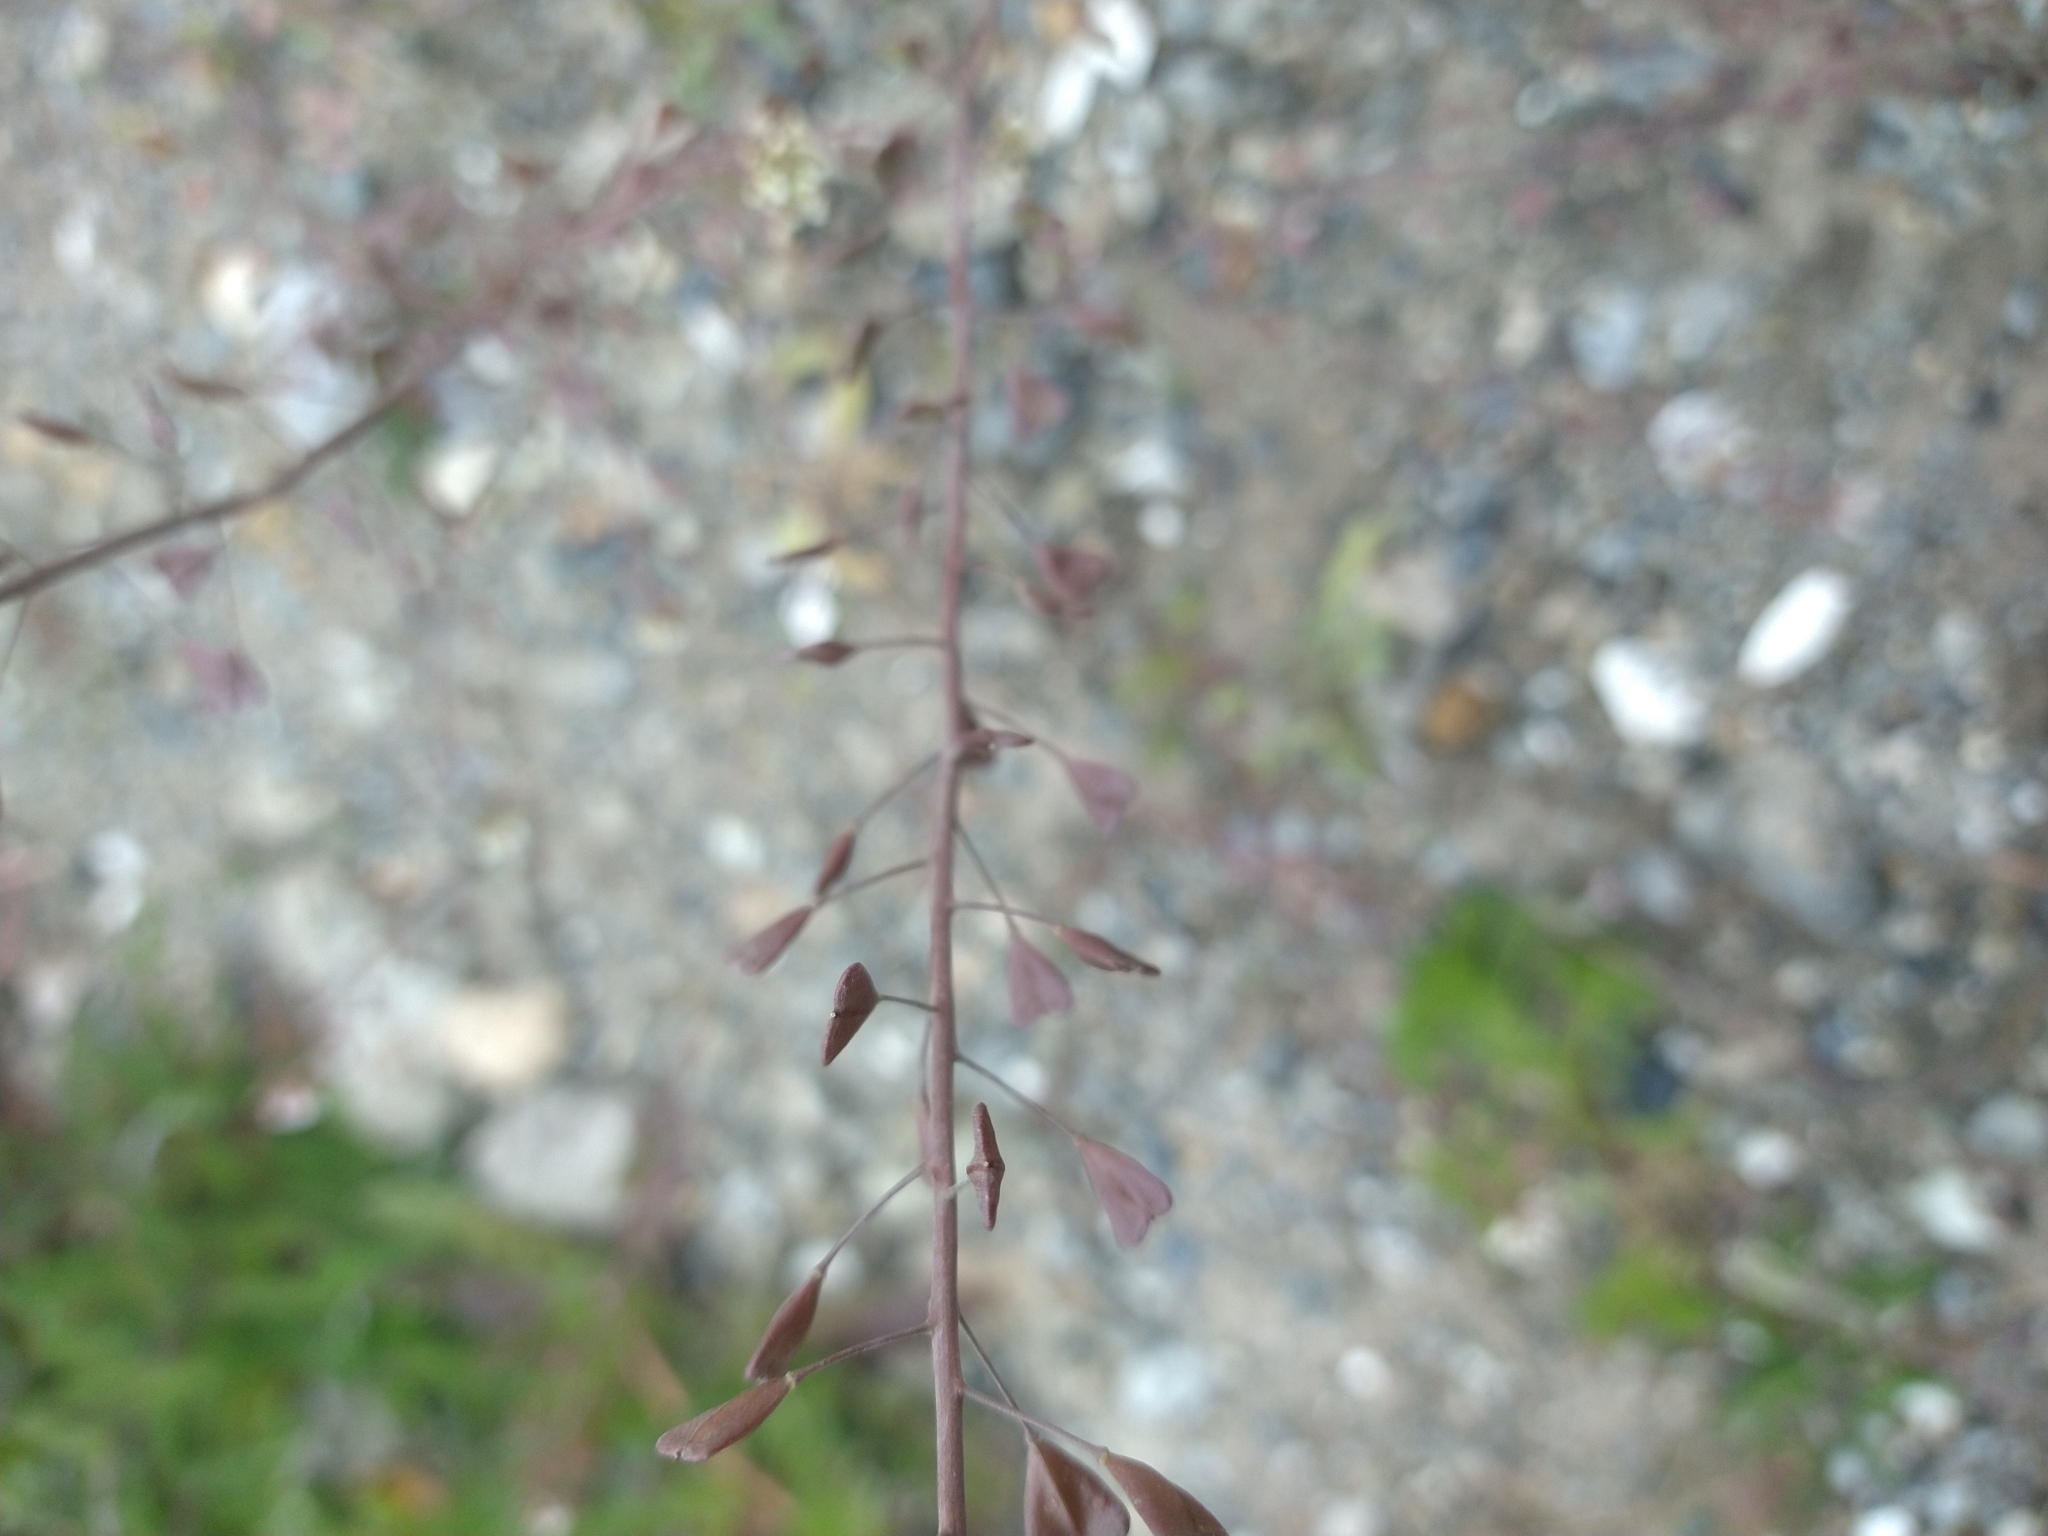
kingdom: Plantae
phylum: Tracheophyta
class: Magnoliopsida
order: Brassicales
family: Brassicaceae
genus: Capsella
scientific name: Capsella bursa-pastoris
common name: Shepherd's purse
